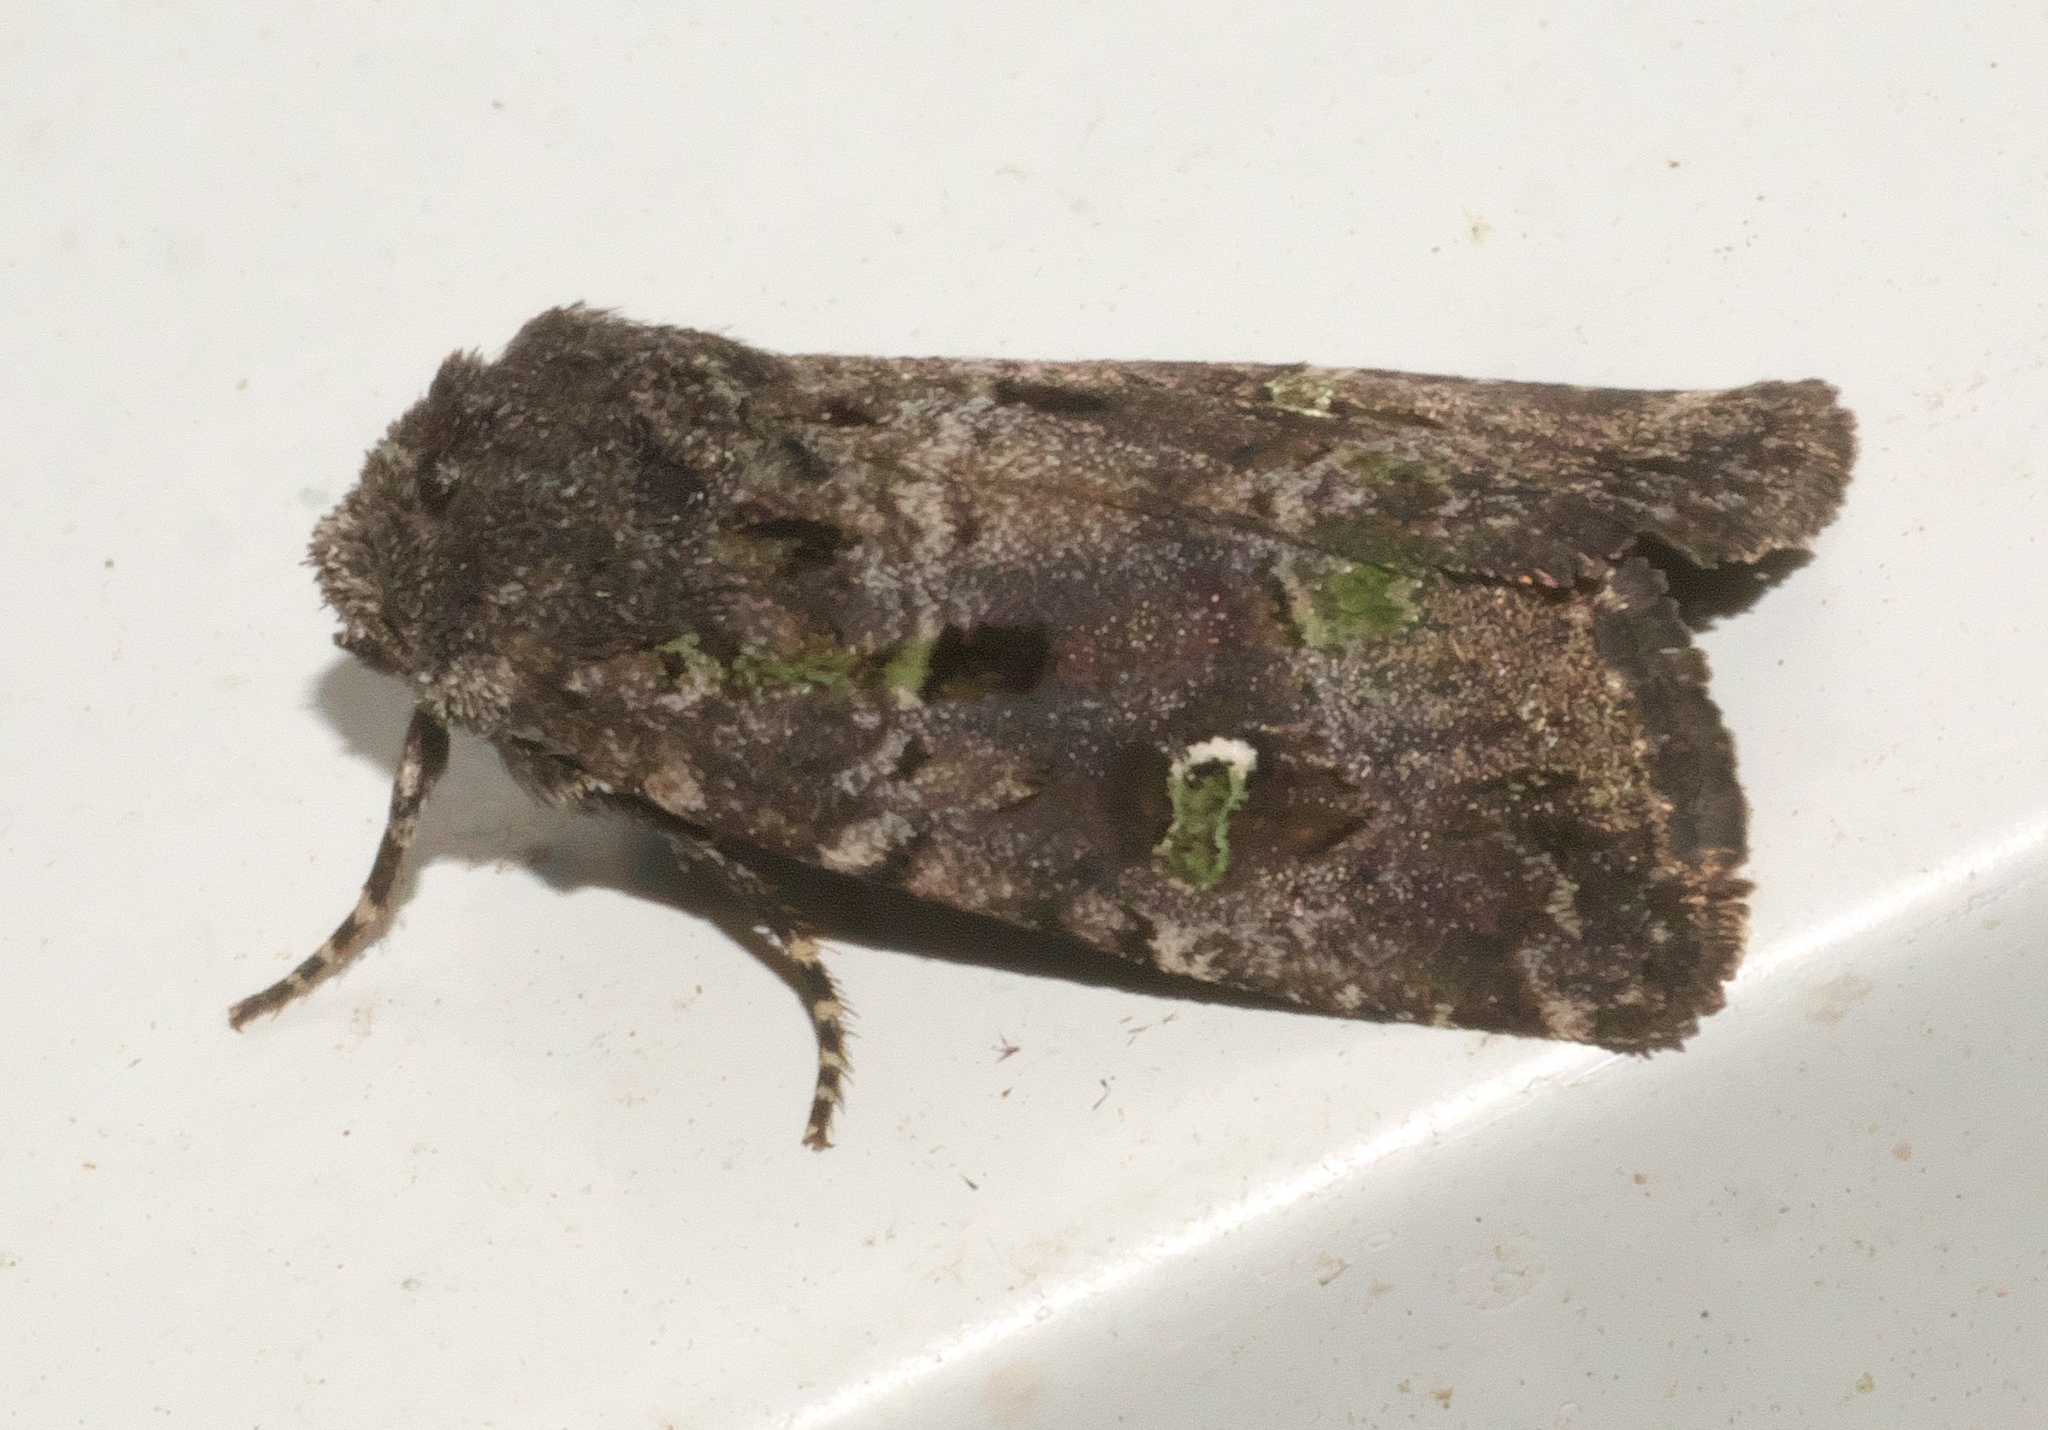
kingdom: Animalia
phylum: Arthropoda
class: Insecta
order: Lepidoptera
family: Noctuidae
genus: Lacinipolia
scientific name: Lacinipolia renigera
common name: Kidney-spotted minor
